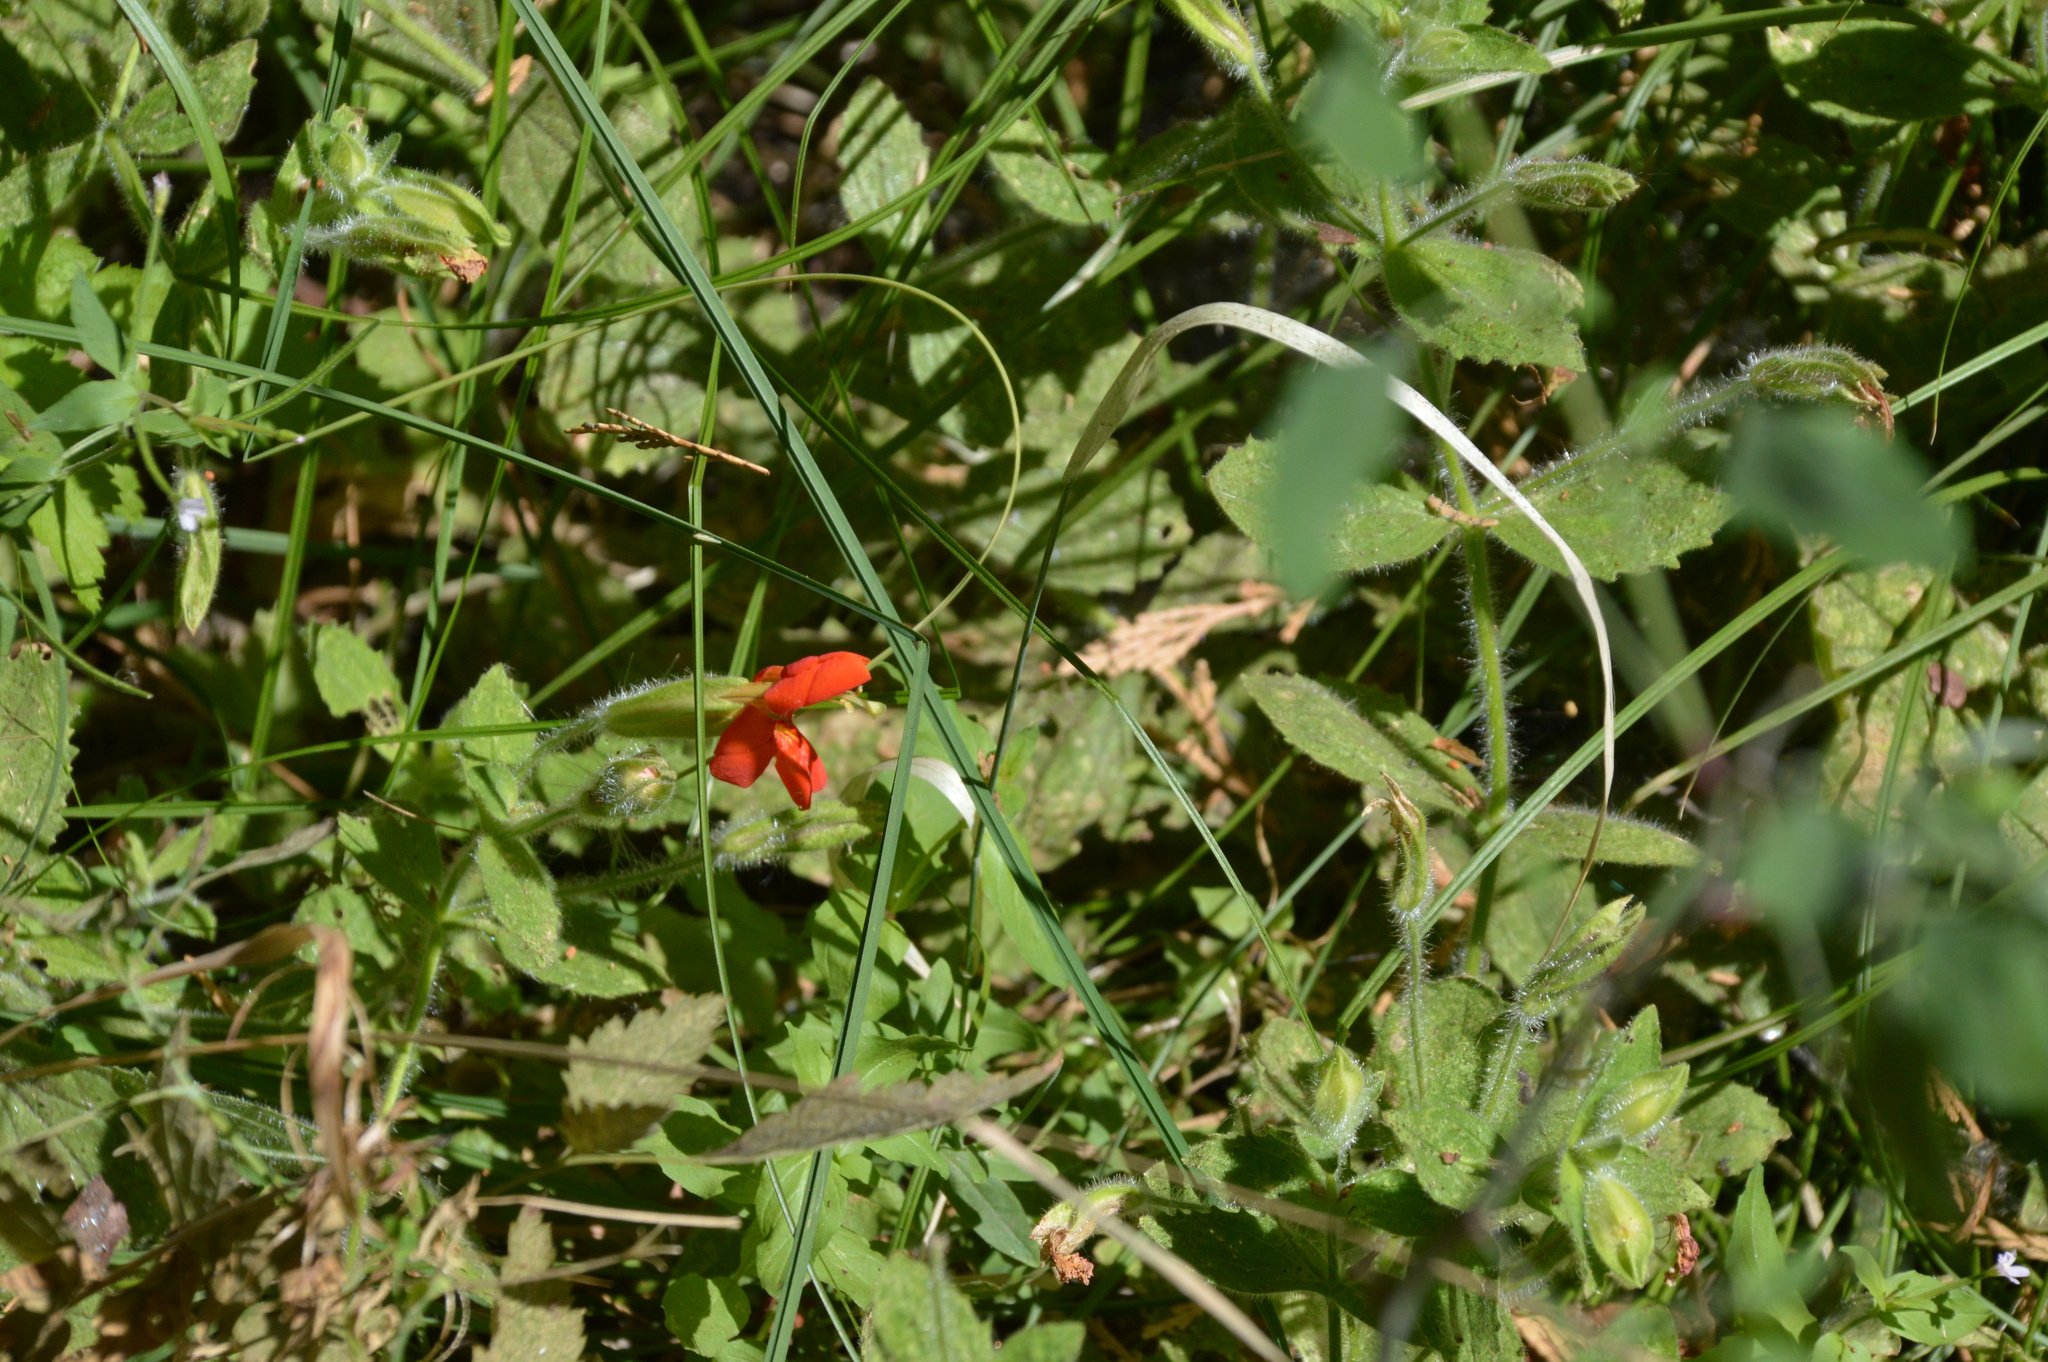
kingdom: Plantae
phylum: Tracheophyta
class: Magnoliopsida
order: Lamiales
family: Phrymaceae
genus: Erythranthe
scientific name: Erythranthe cardinalis
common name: Scarlet monkey-flower
